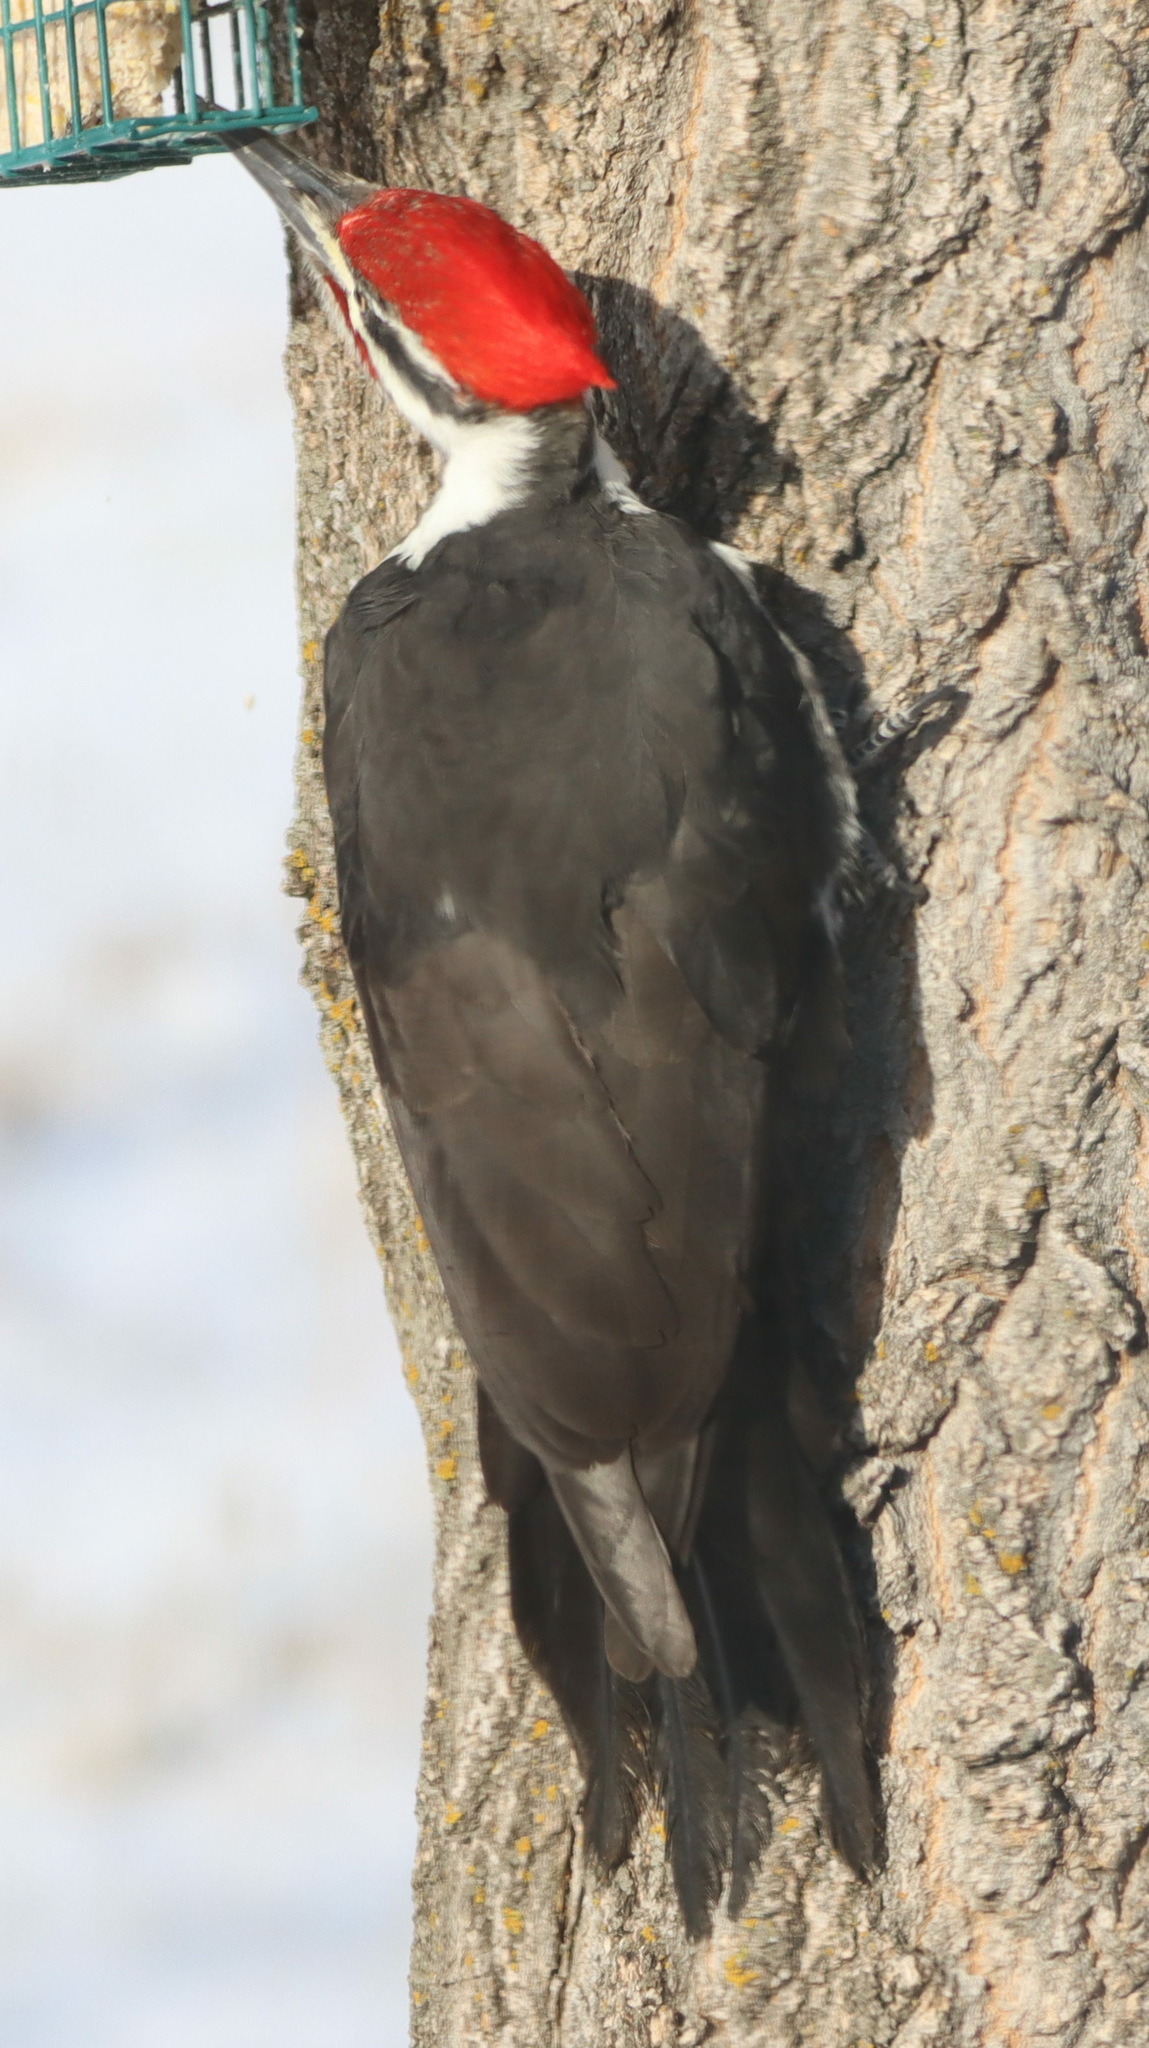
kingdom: Animalia
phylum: Chordata
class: Aves
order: Piciformes
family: Picidae
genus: Dryocopus
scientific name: Dryocopus pileatus
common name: Pileated woodpecker
